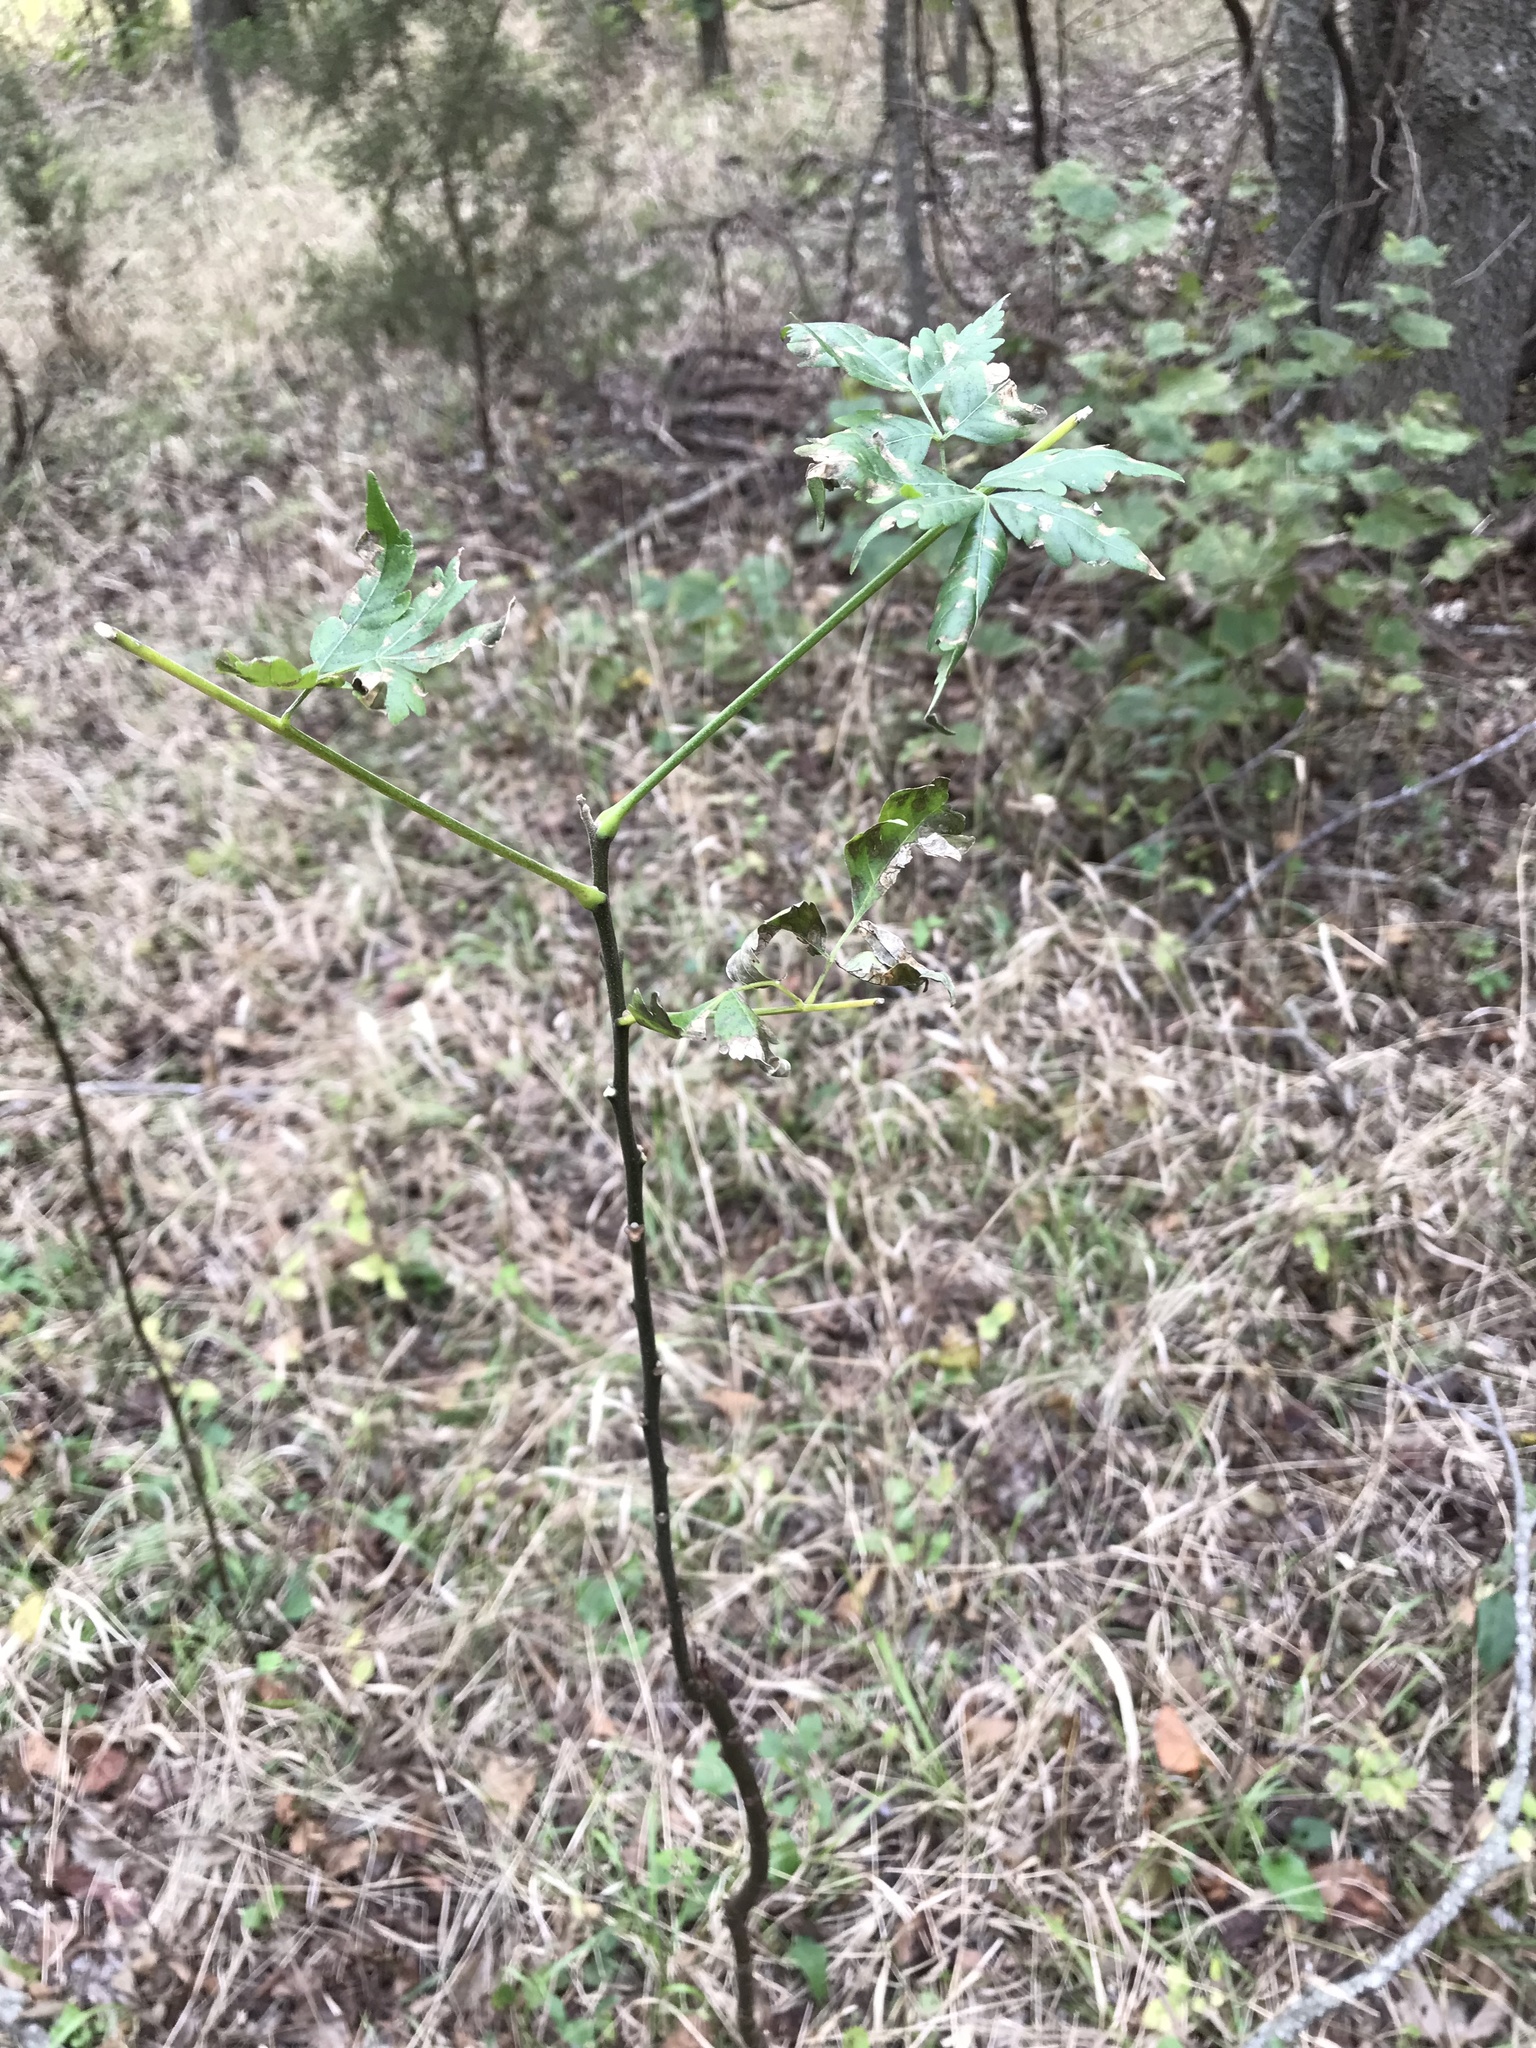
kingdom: Plantae
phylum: Tracheophyta
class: Magnoliopsida
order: Sapindales
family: Meliaceae
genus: Melia
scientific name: Melia azedarach
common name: Chinaberrytree
